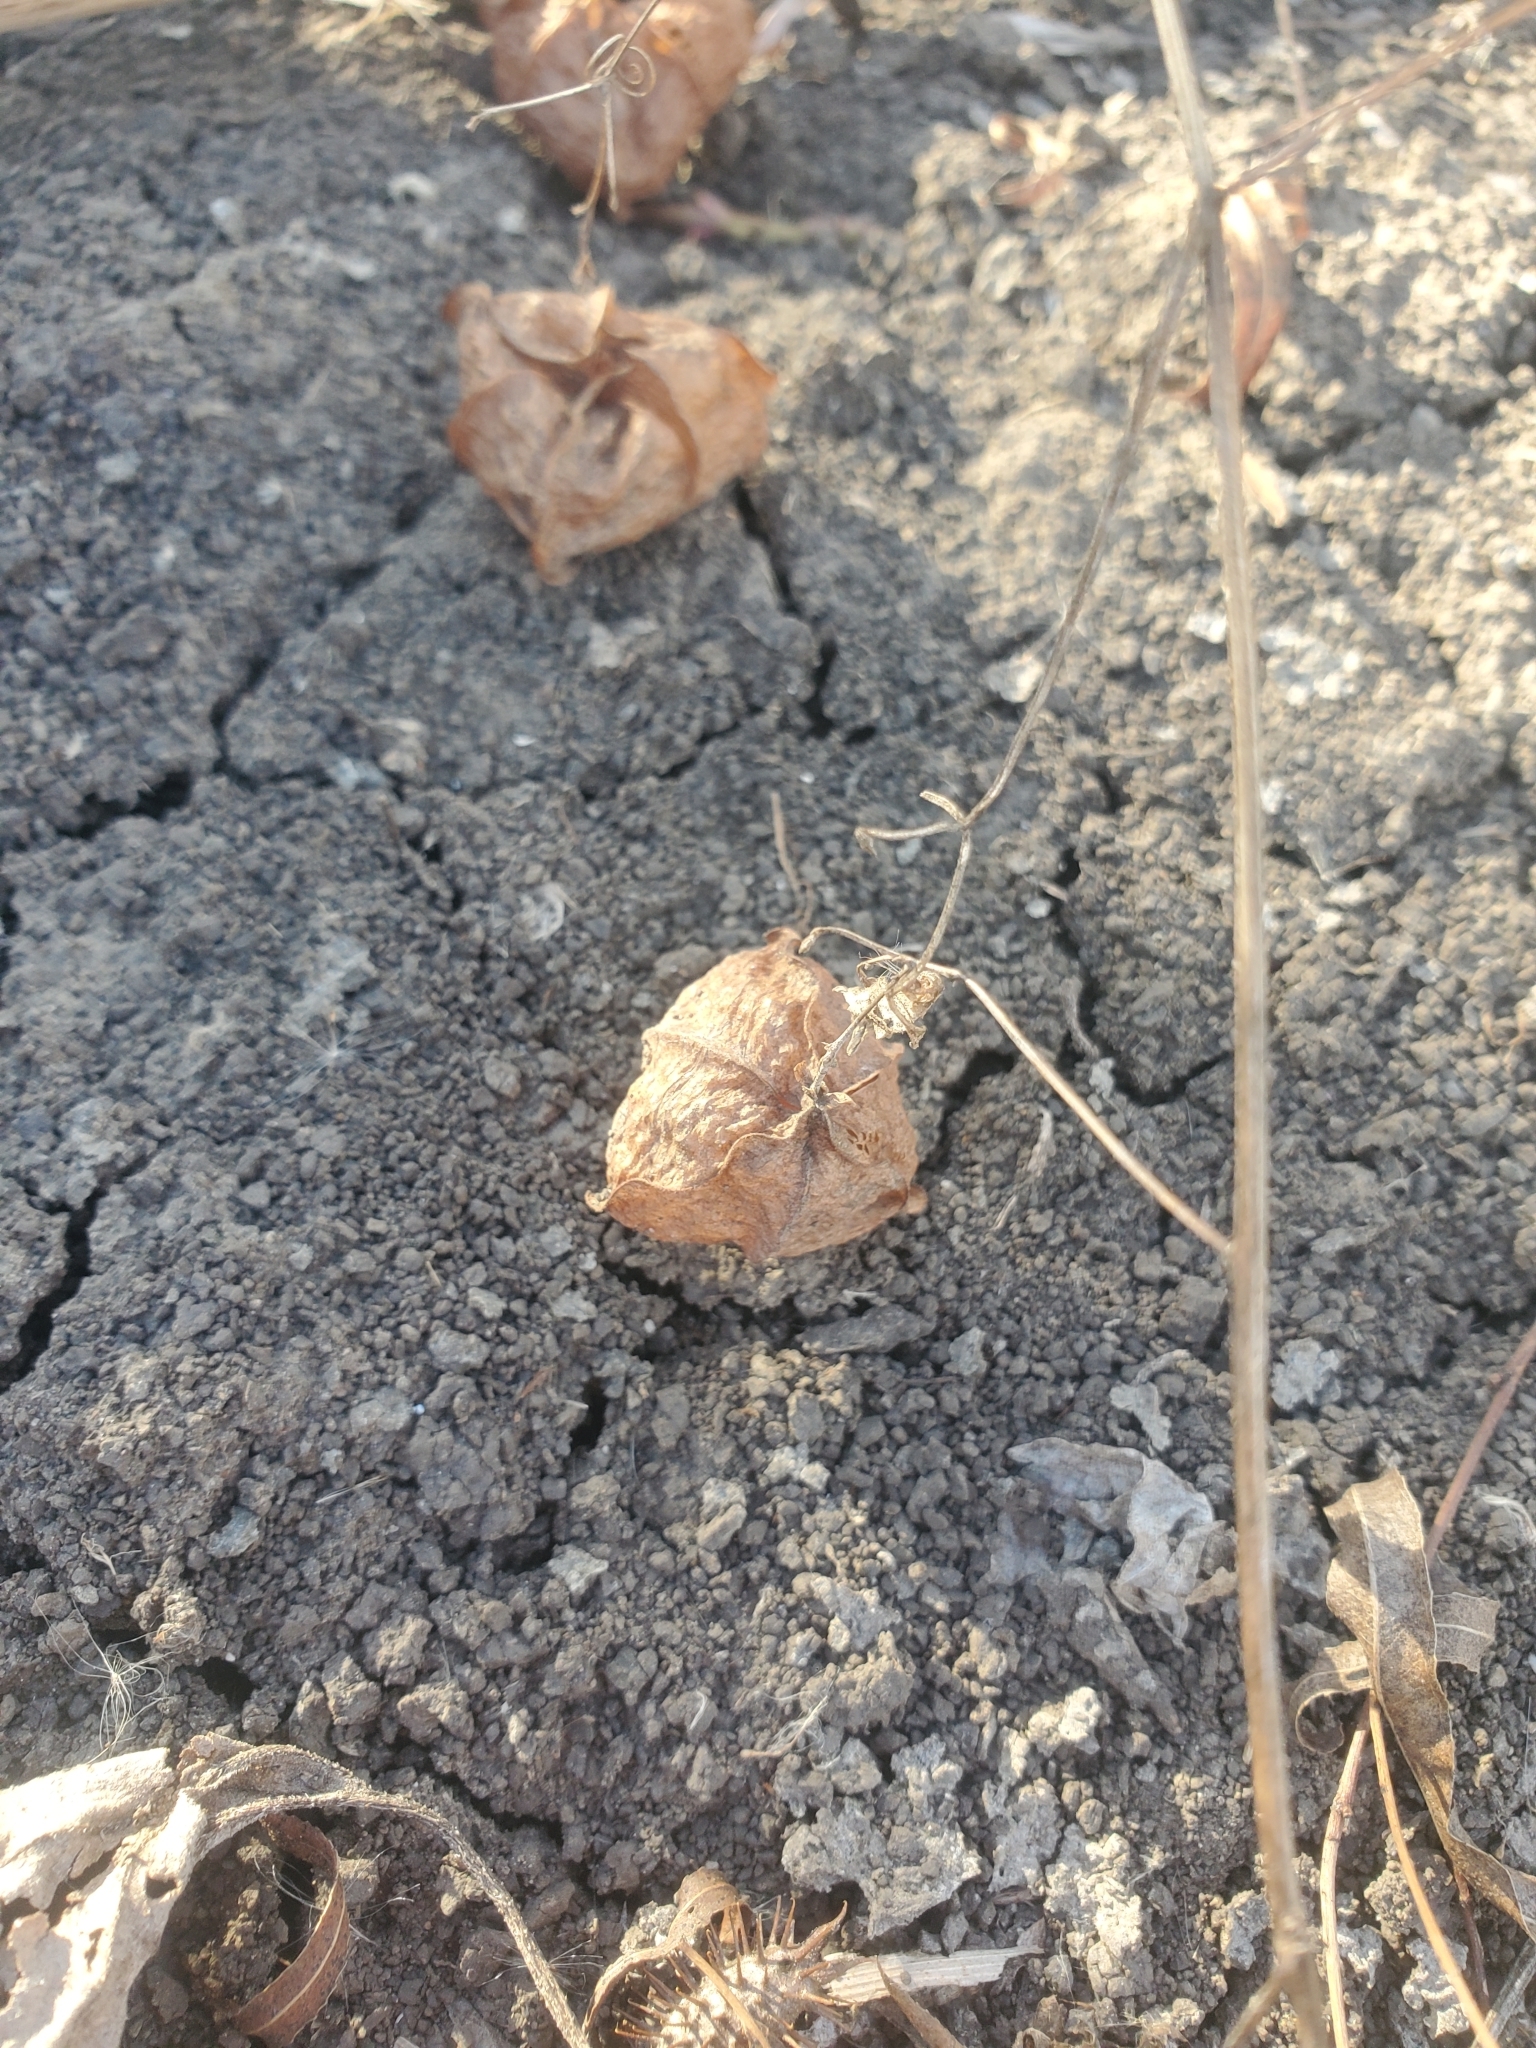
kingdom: Plantae
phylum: Tracheophyta
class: Magnoliopsida
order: Sapindales
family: Sapindaceae
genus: Cardiospermum
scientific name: Cardiospermum halicacabum
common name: Balloon vine
